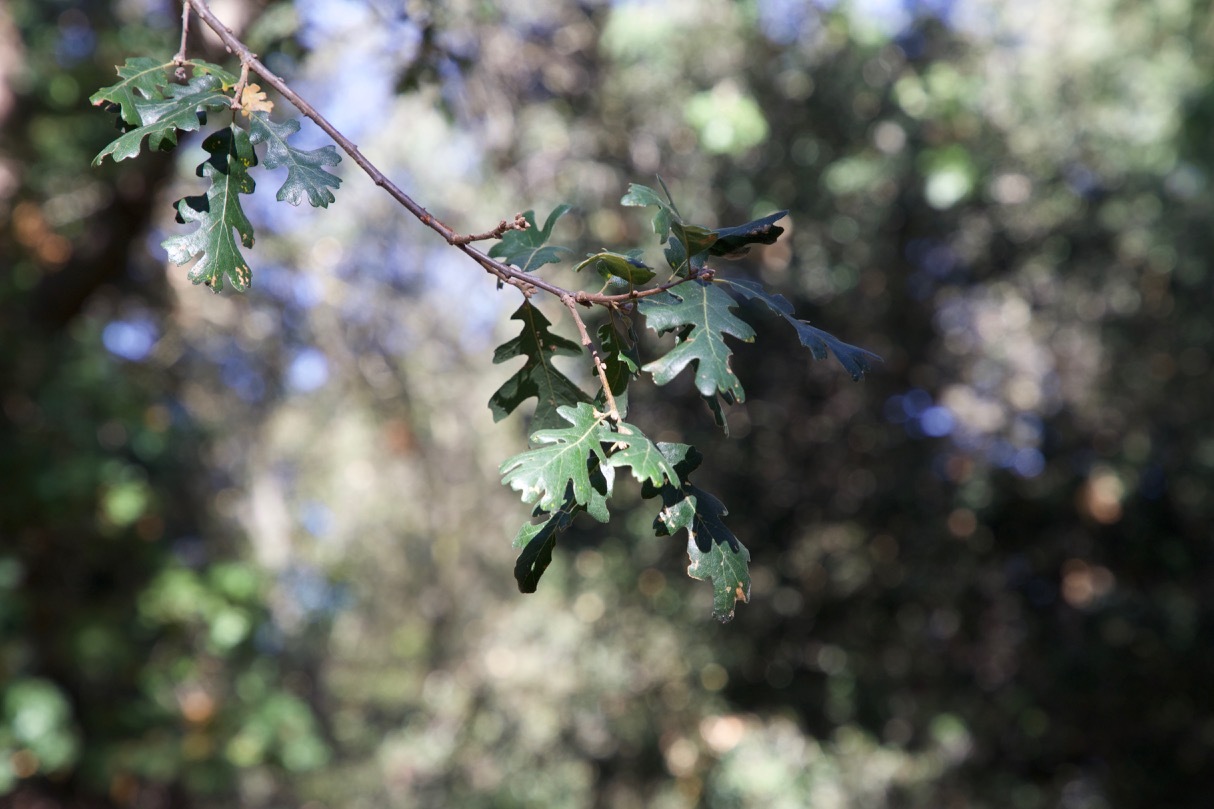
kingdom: Plantae
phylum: Tracheophyta
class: Magnoliopsida
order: Fagales
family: Fagaceae
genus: Quercus
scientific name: Quercus lobata
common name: Valley oak
